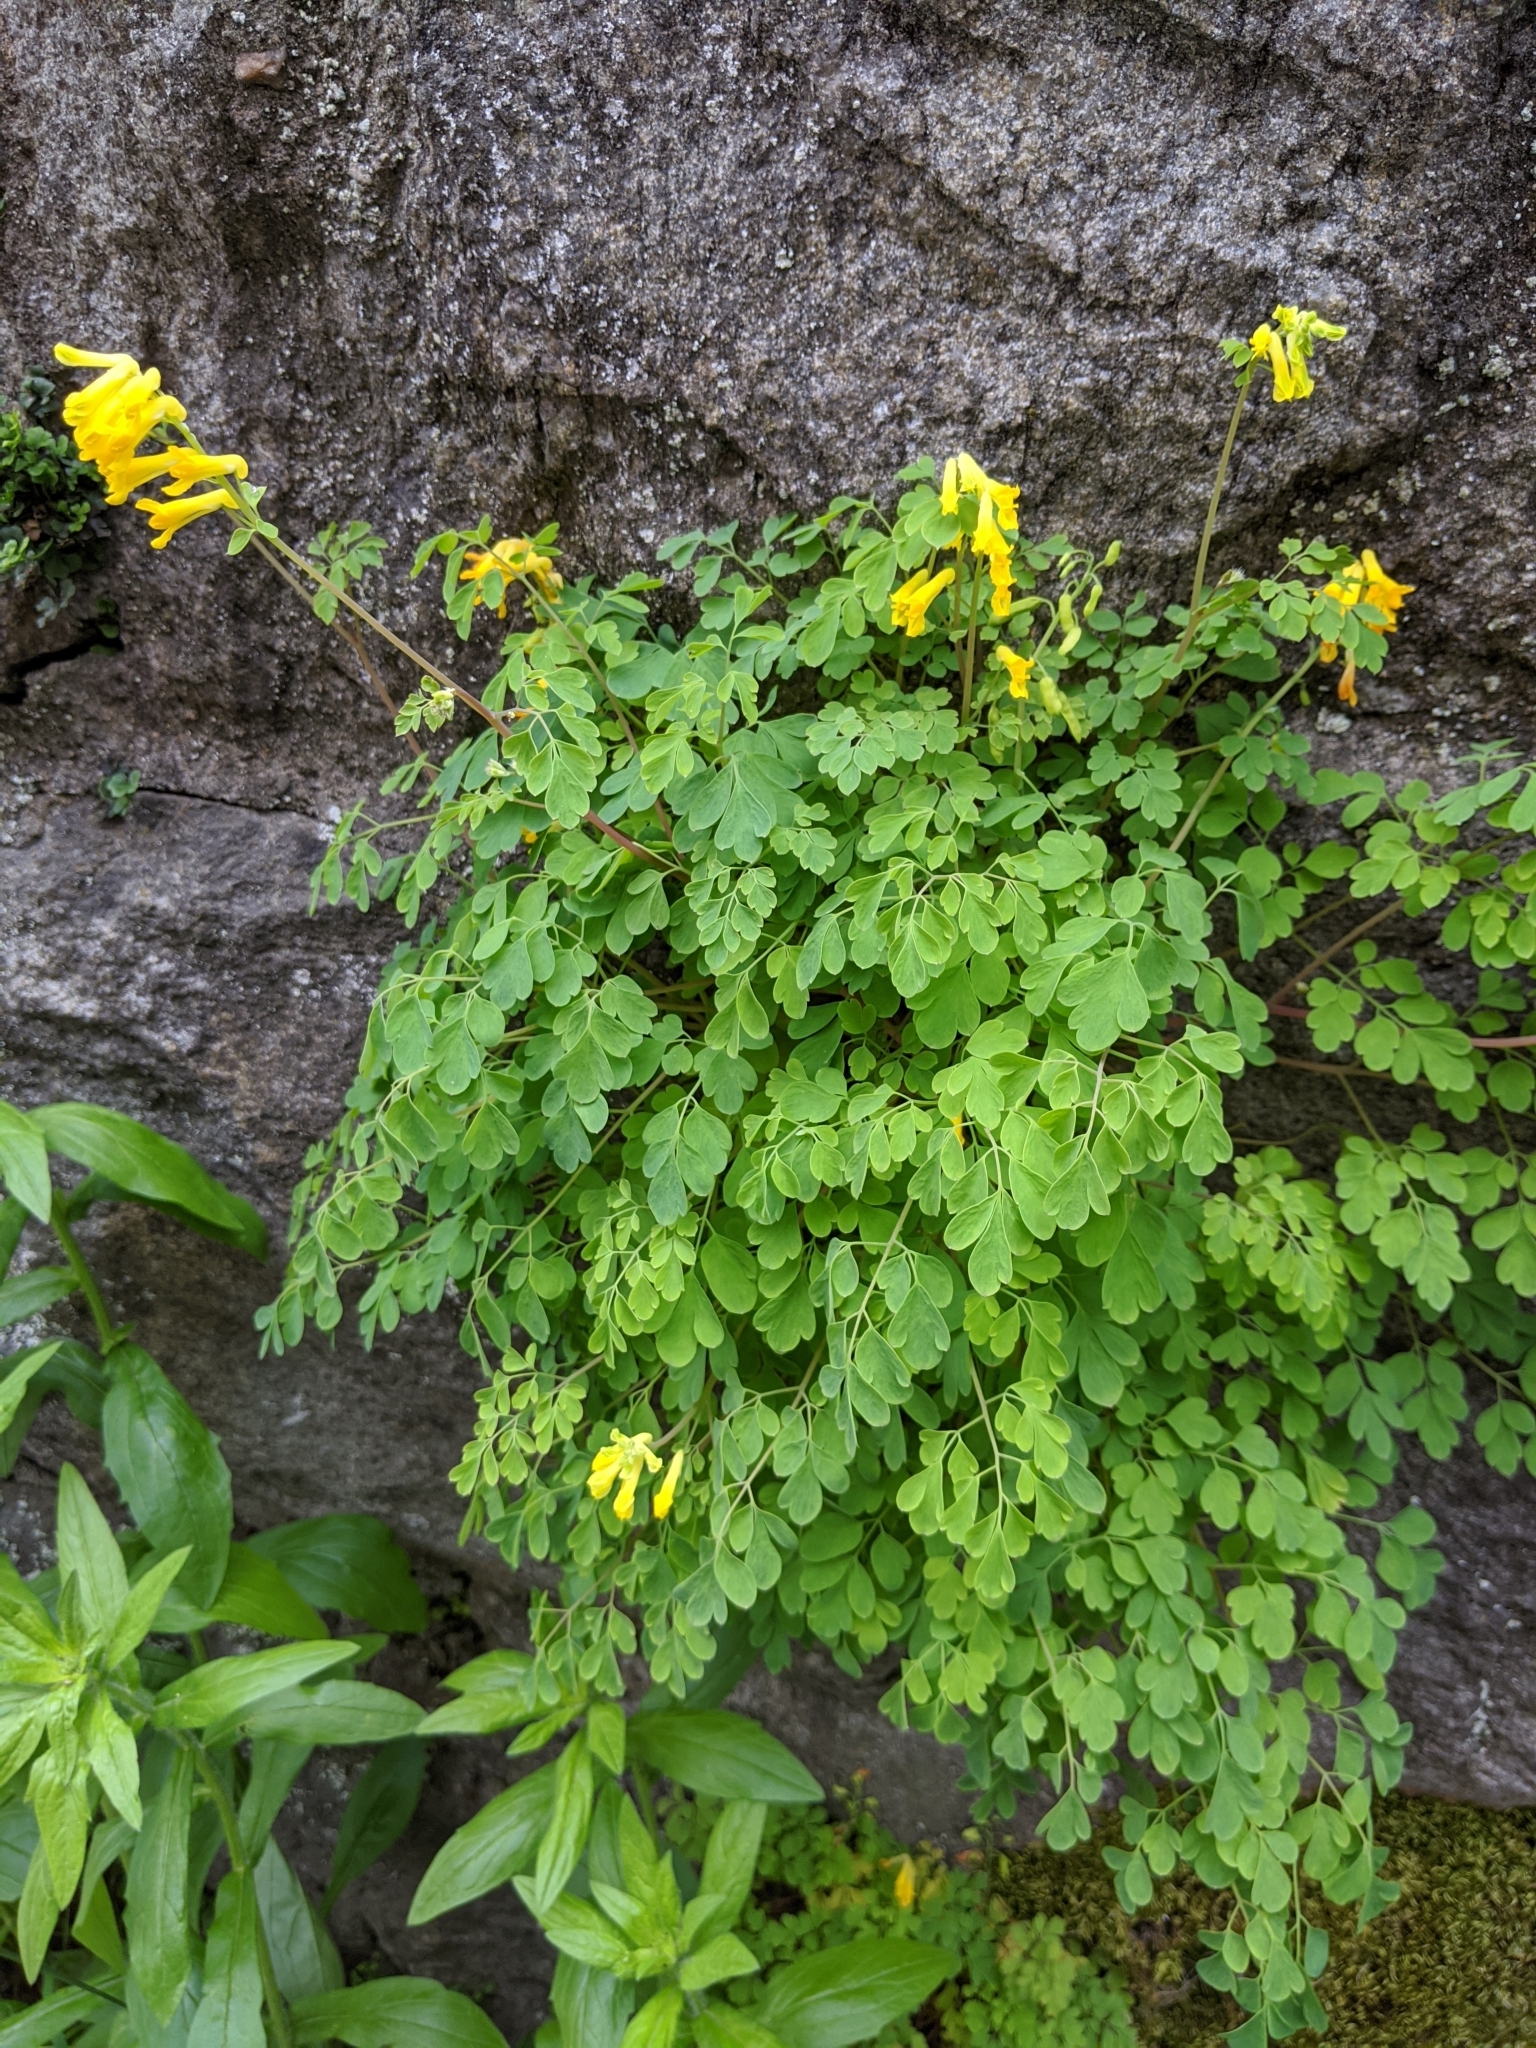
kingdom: Plantae
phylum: Tracheophyta
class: Magnoliopsida
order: Ranunculales
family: Papaveraceae
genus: Pseudofumaria
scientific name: Pseudofumaria lutea
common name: Yellow corydalis
